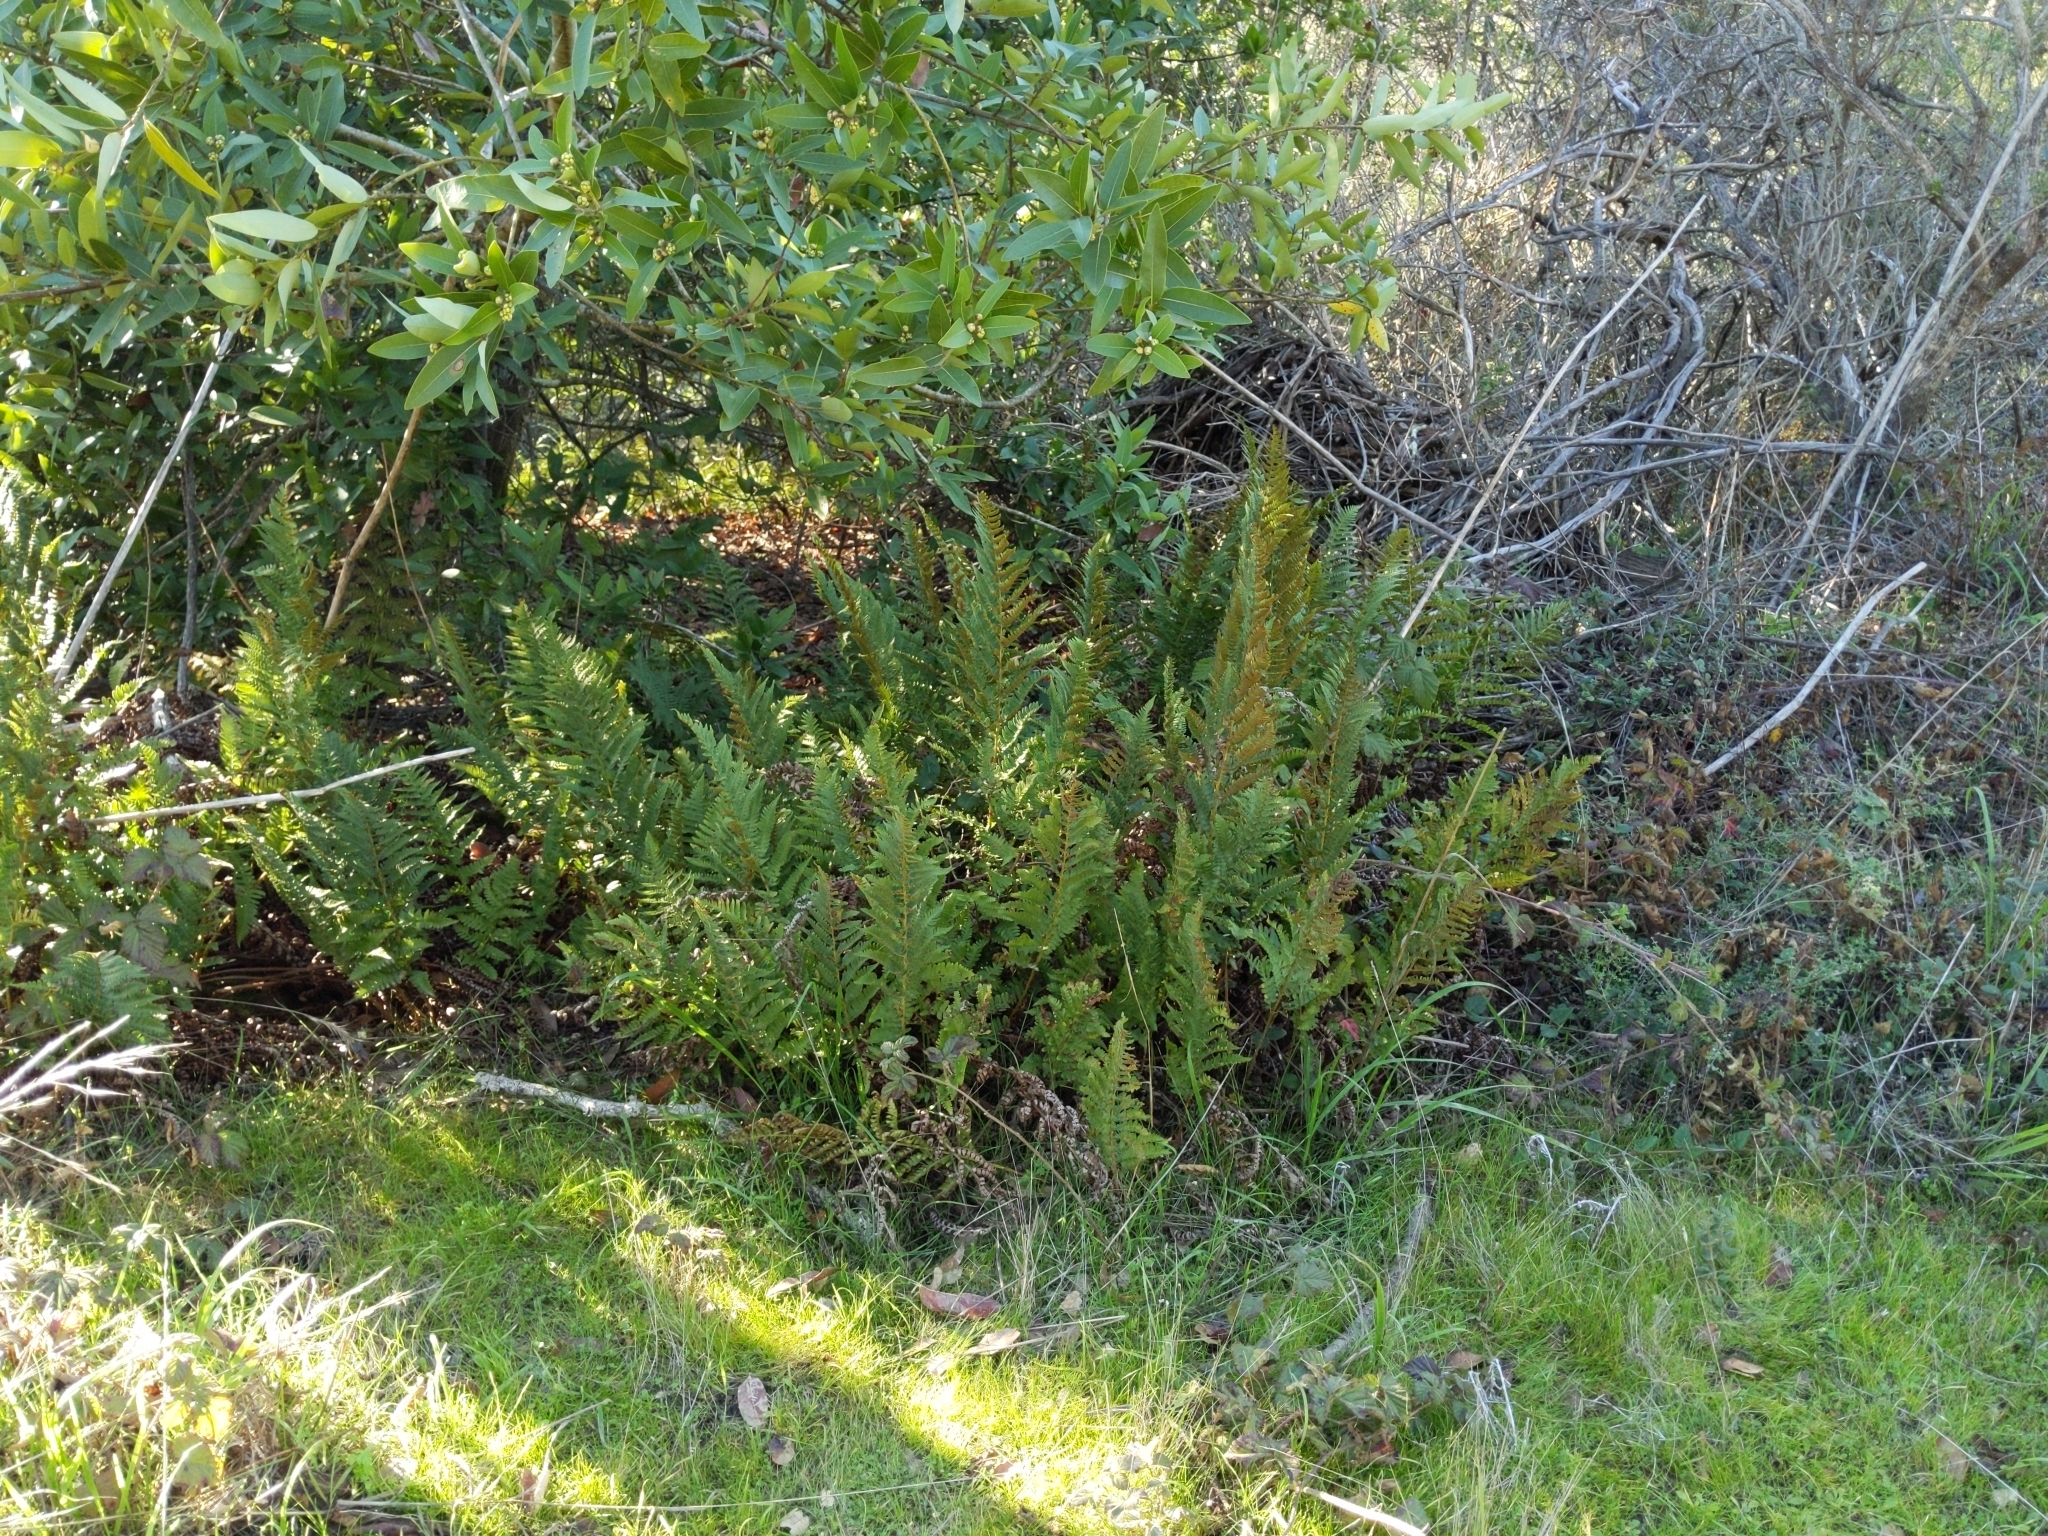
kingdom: Plantae
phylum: Tracheophyta
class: Polypodiopsida
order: Polypodiales
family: Dryopteridaceae
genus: Dryopteris
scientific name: Dryopteris arguta
